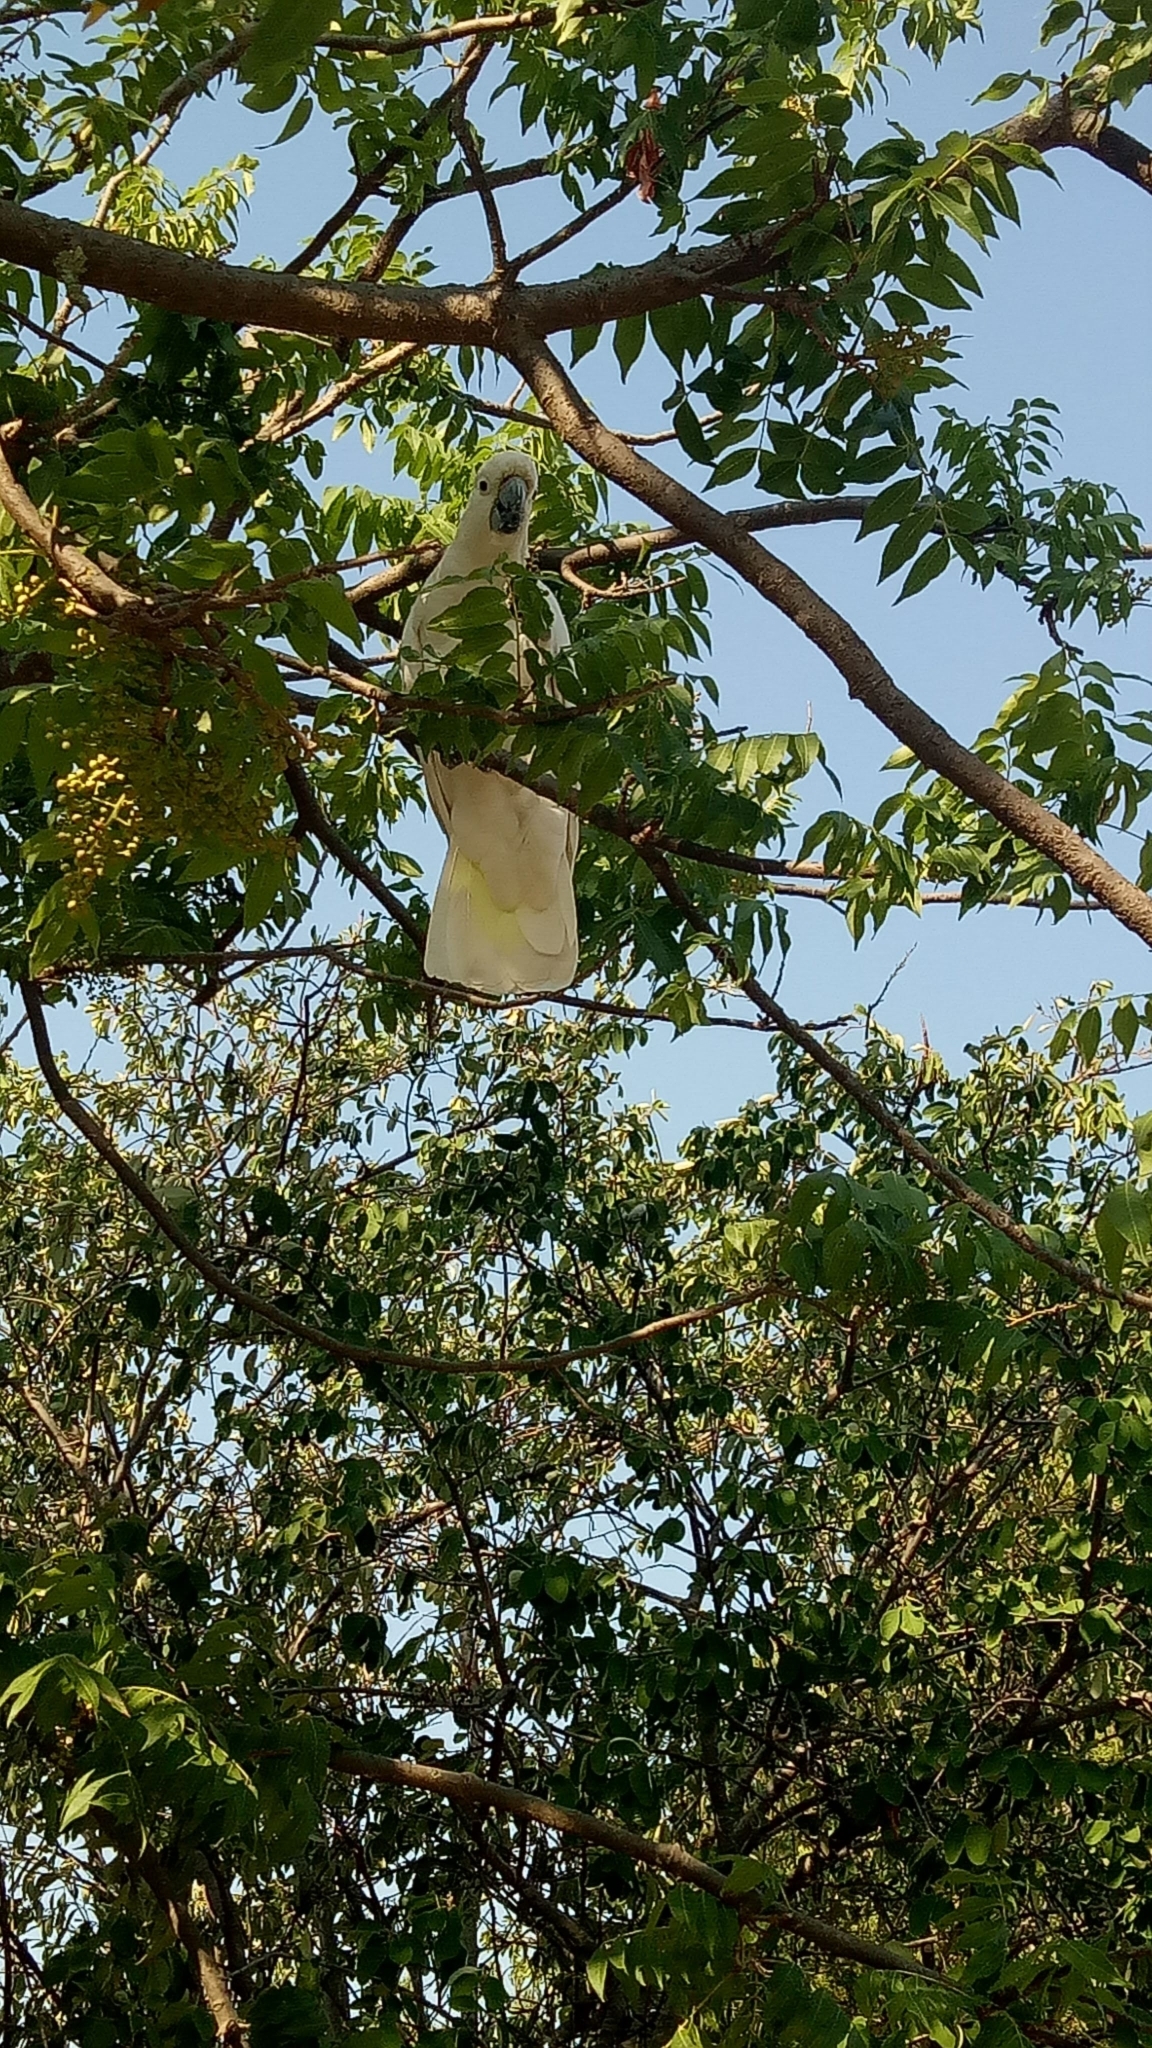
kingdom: Animalia
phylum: Chordata
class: Aves
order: Psittaciformes
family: Psittacidae
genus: Cacatua
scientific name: Cacatua galerita
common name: Sulphur-crested cockatoo
